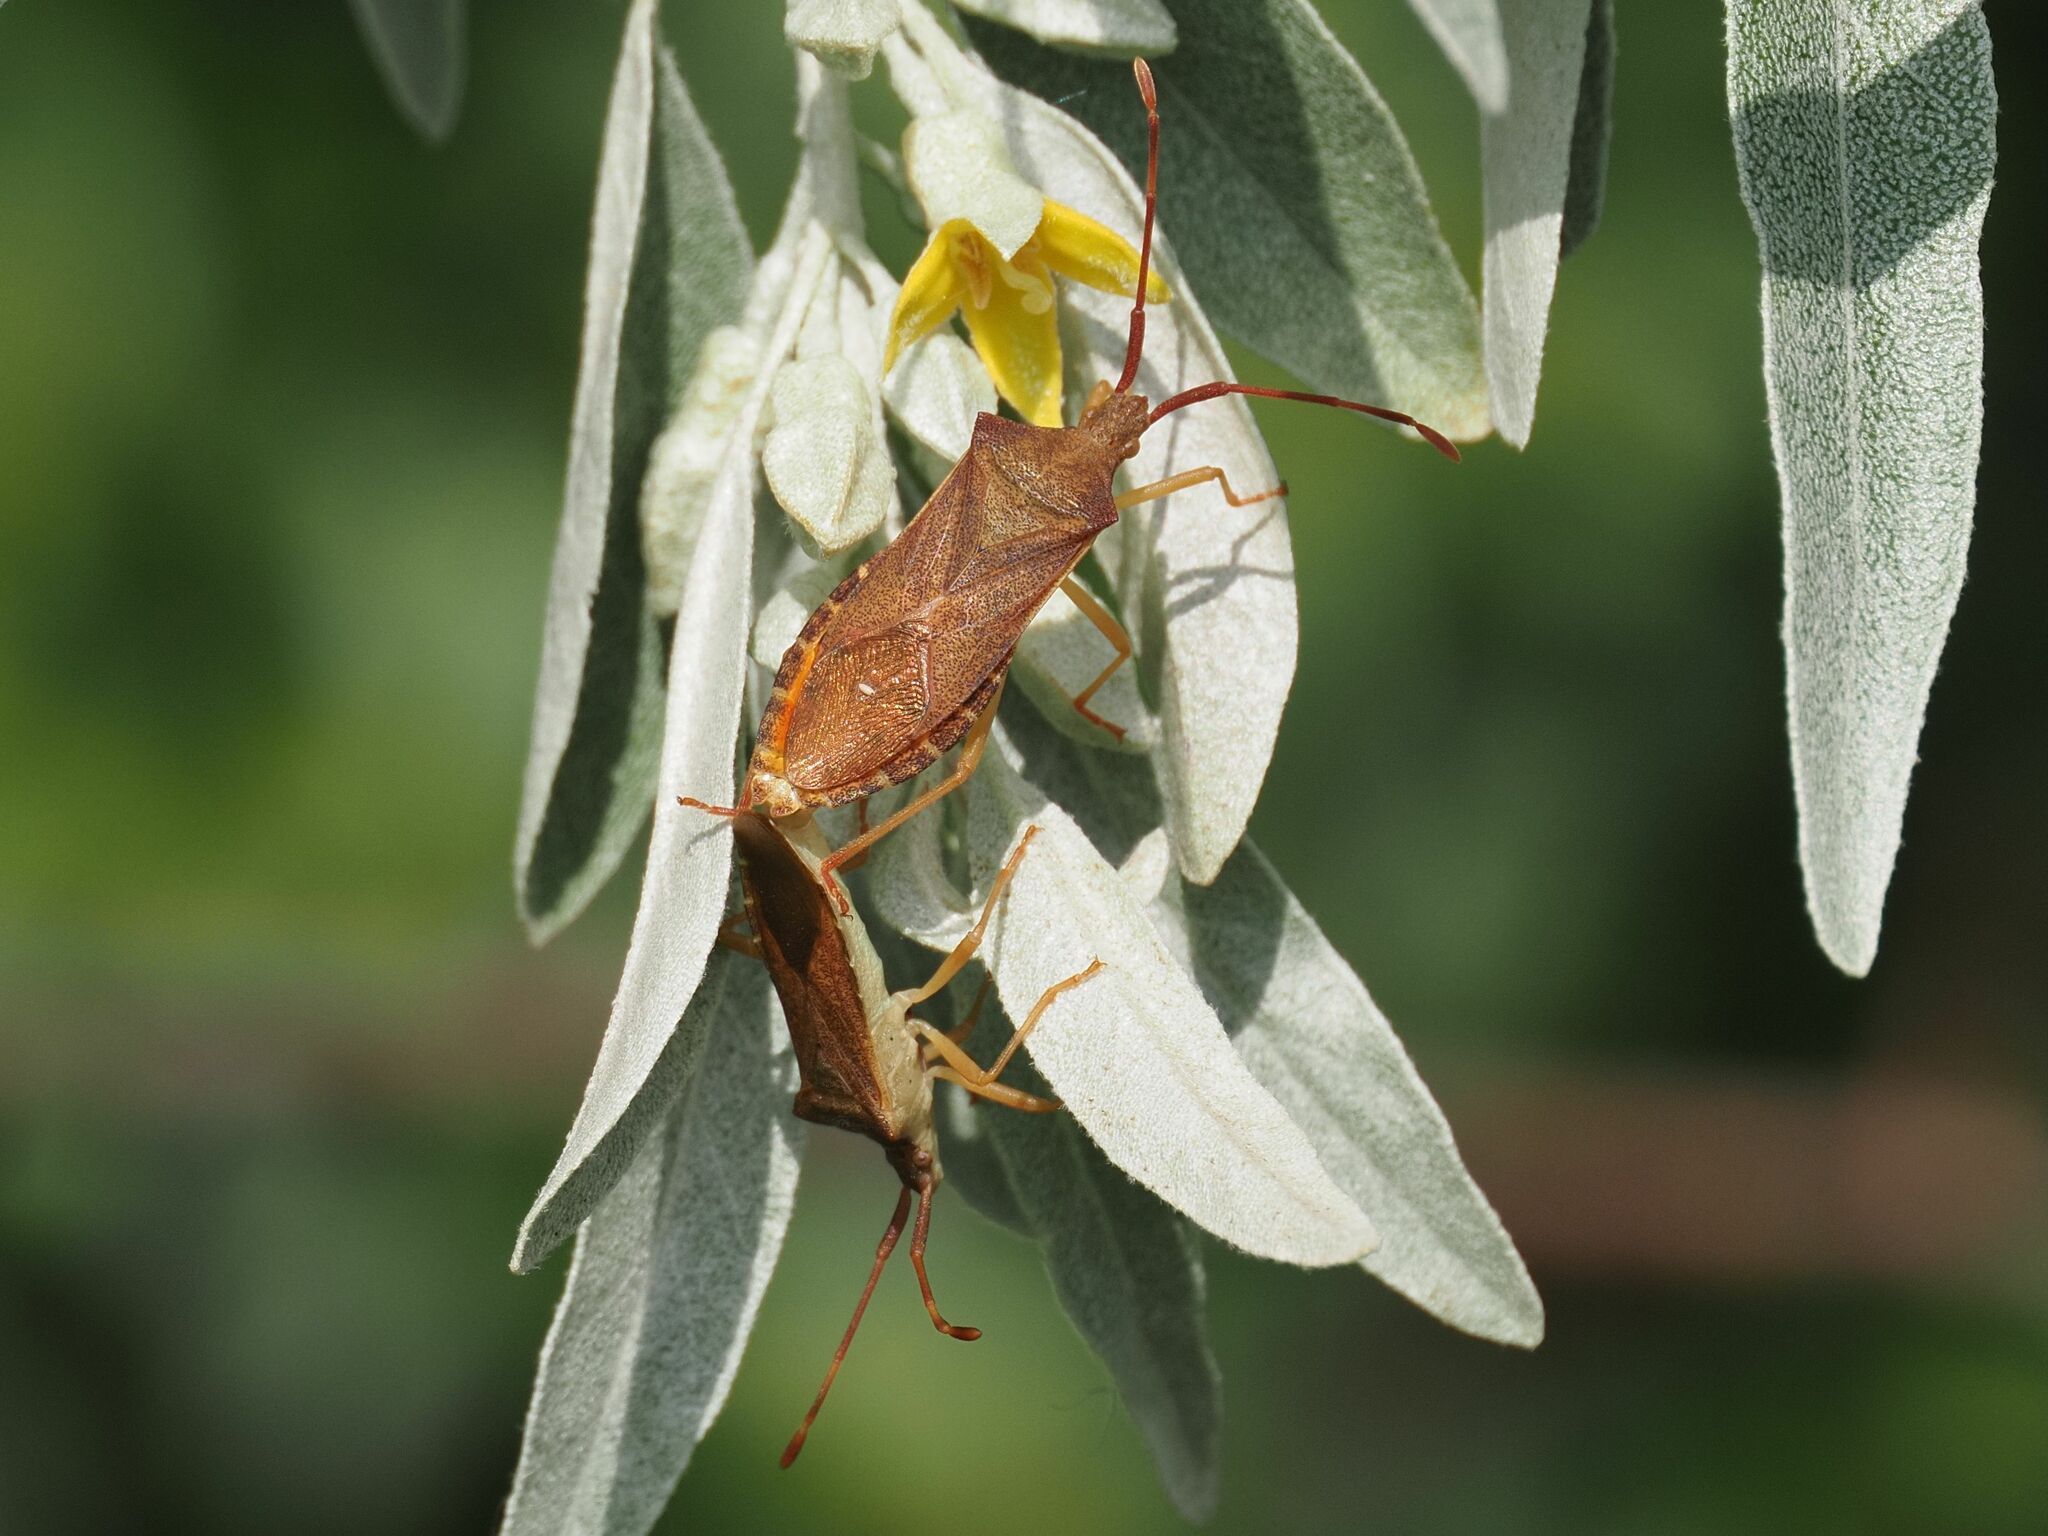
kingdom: Animalia
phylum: Arthropoda
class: Insecta
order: Hemiptera
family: Coreidae
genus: Gonocerus
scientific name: Gonocerus acuteangulatus
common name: Box bug
